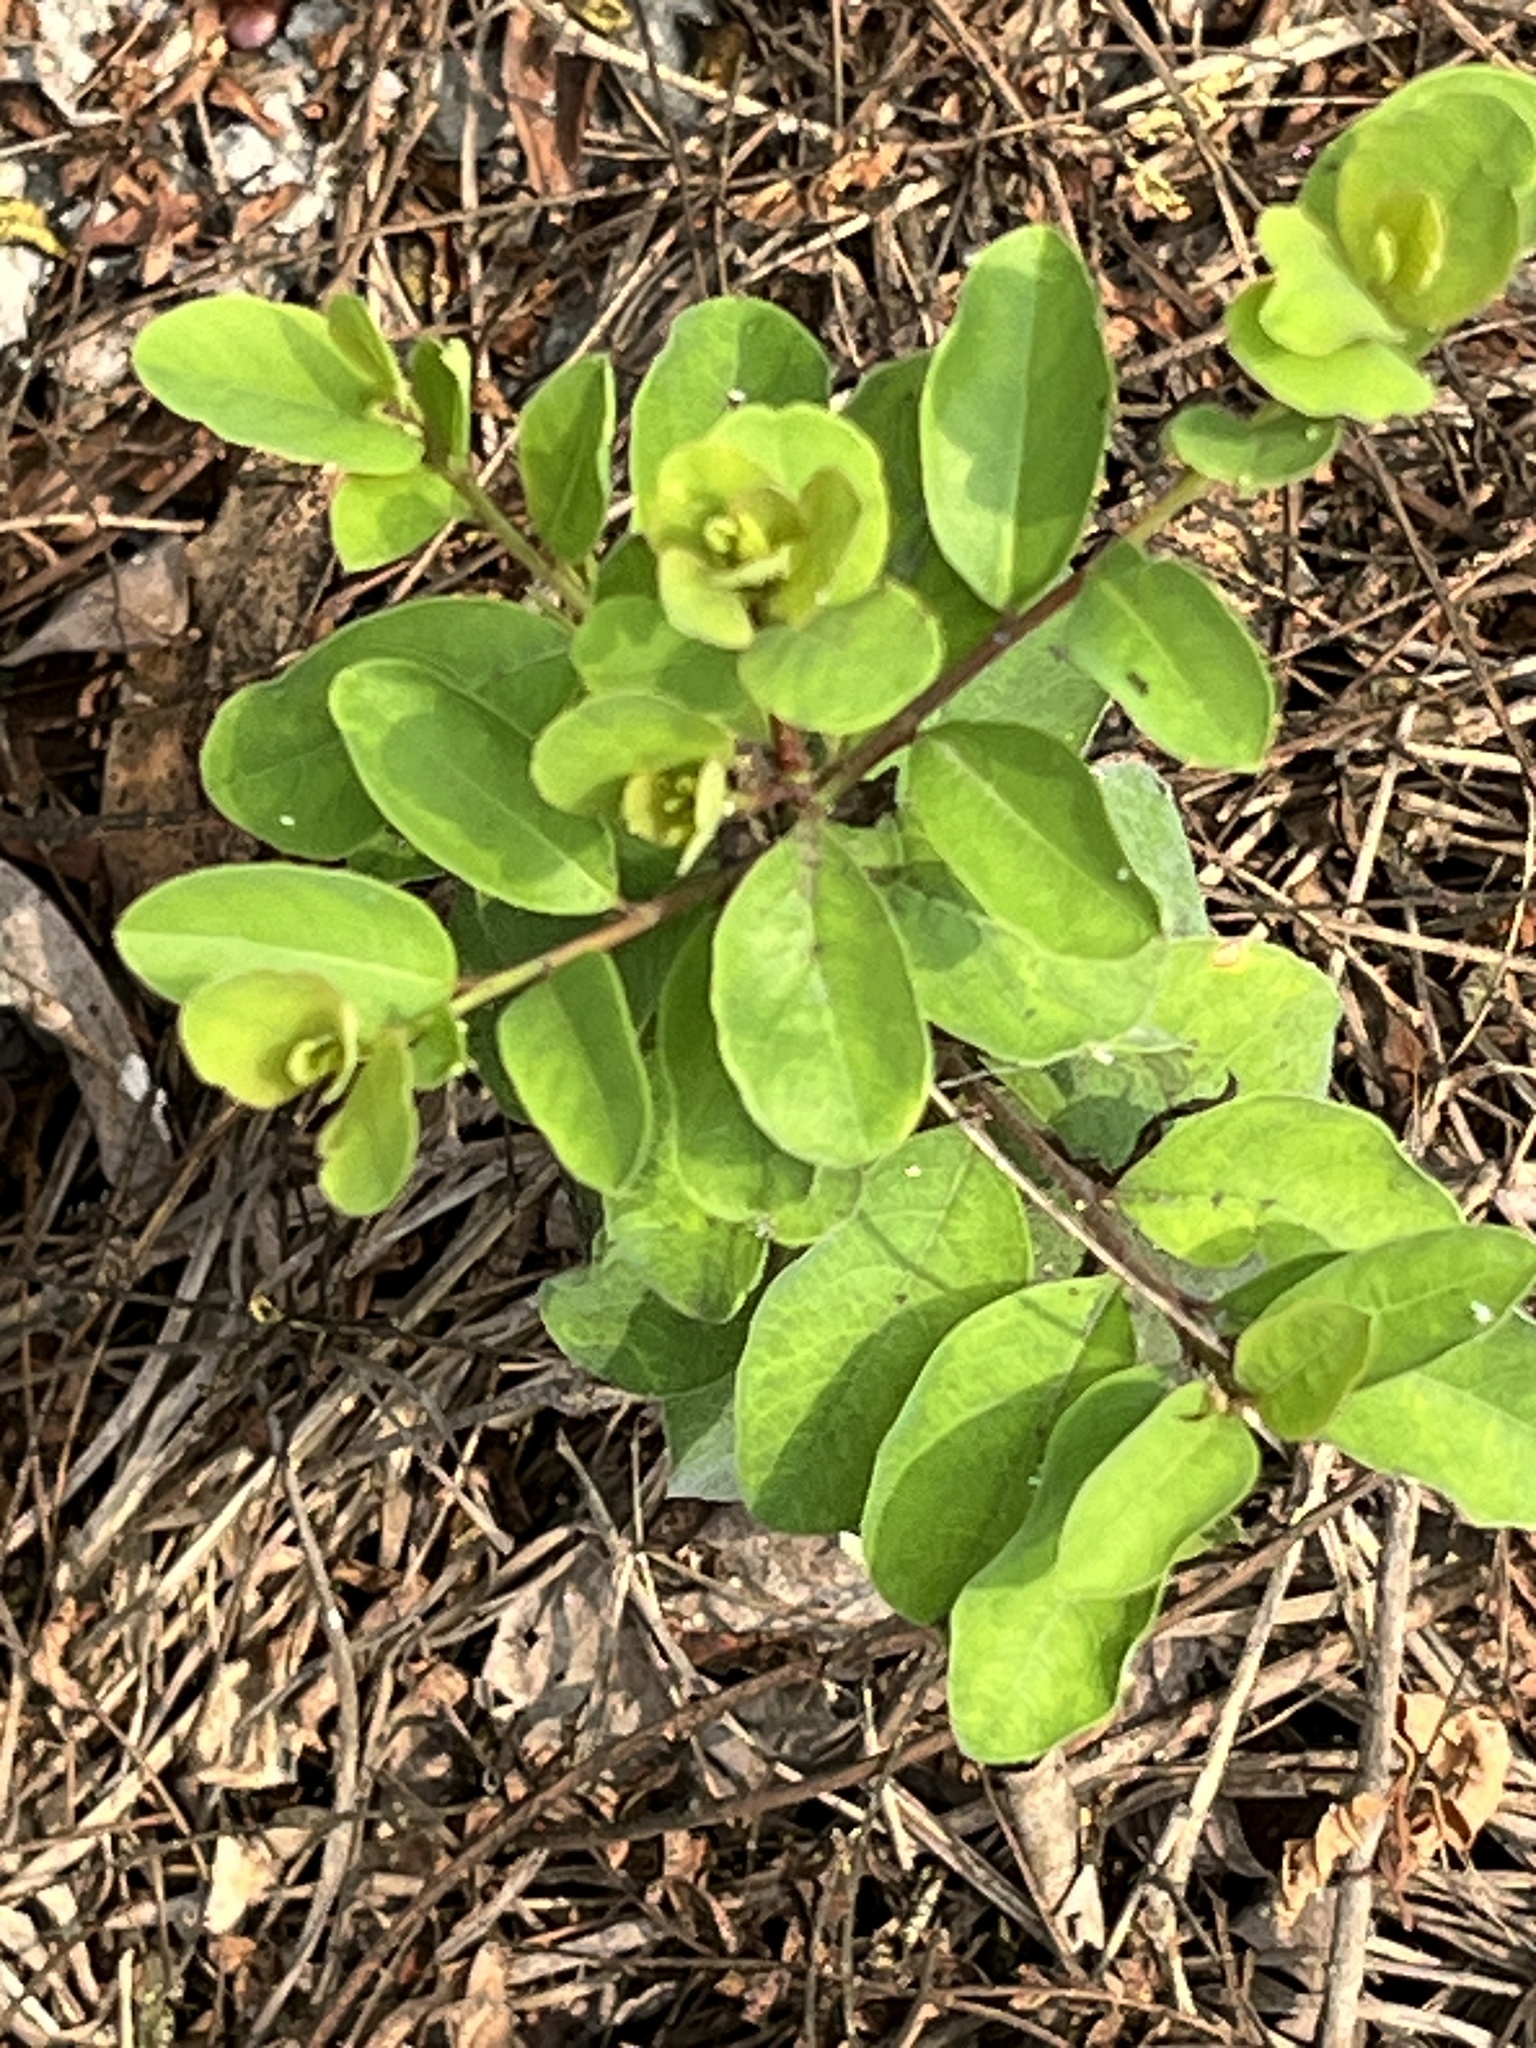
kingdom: Plantae
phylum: Tracheophyta
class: Magnoliopsida
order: Malpighiales
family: Phyllanthaceae
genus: Flueggea
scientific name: Flueggea virosa
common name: Common bushweed
